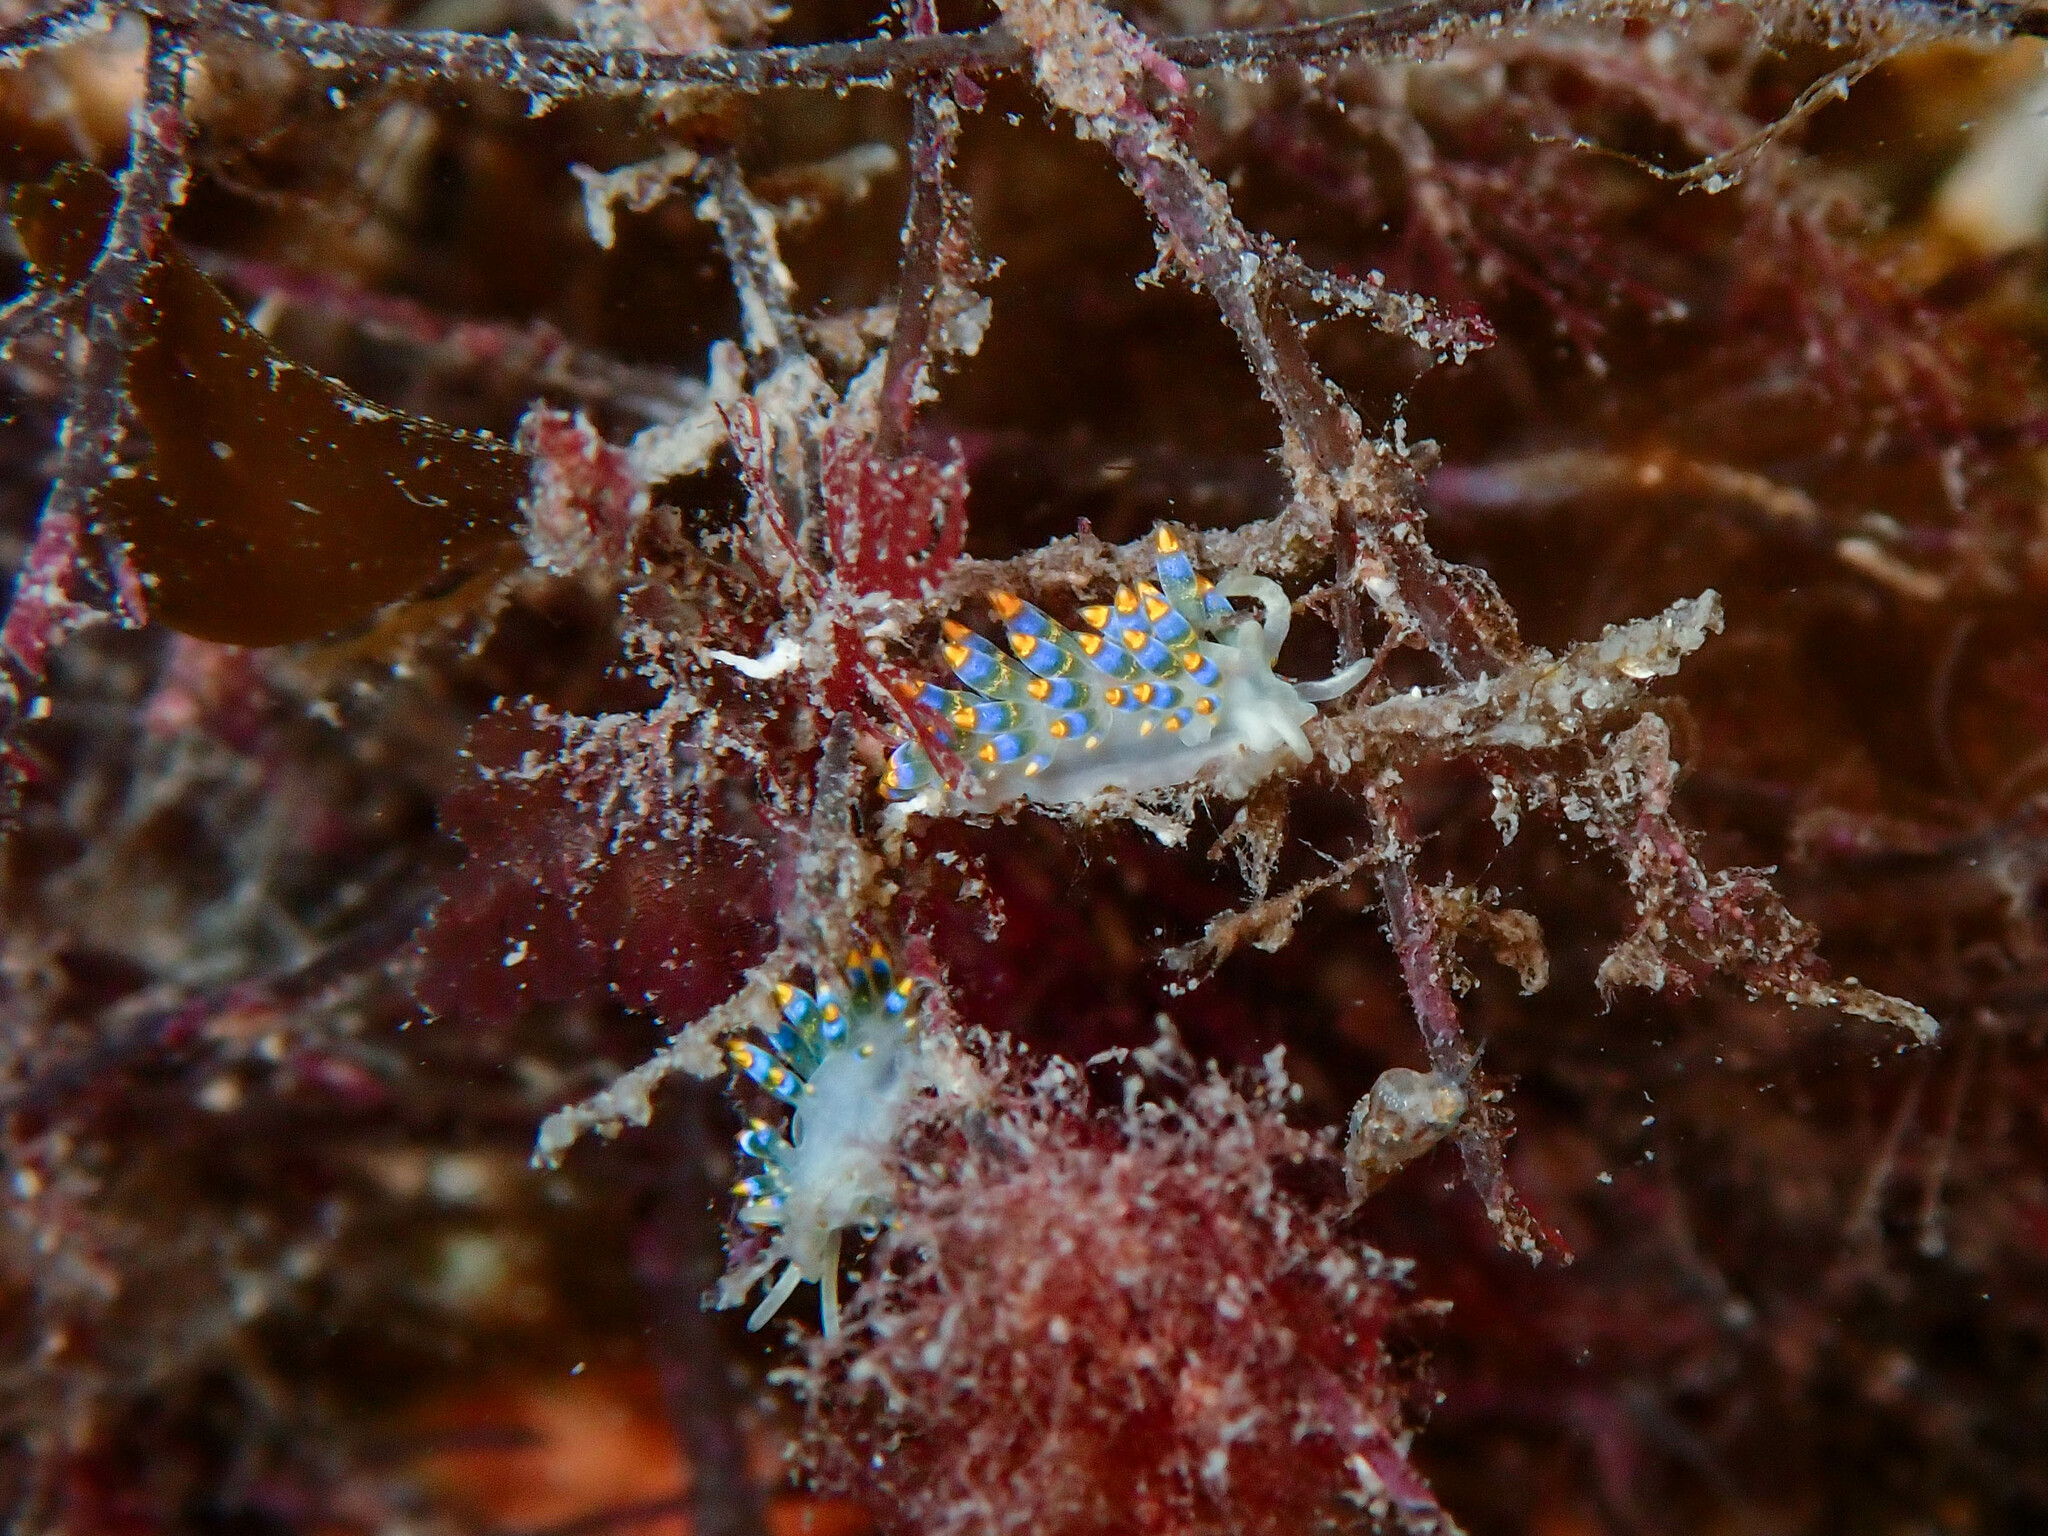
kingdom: Animalia
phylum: Mollusca
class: Gastropoda
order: Nudibranchia
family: Trinchesiidae
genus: Trinchesia
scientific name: Trinchesia cuanensis
